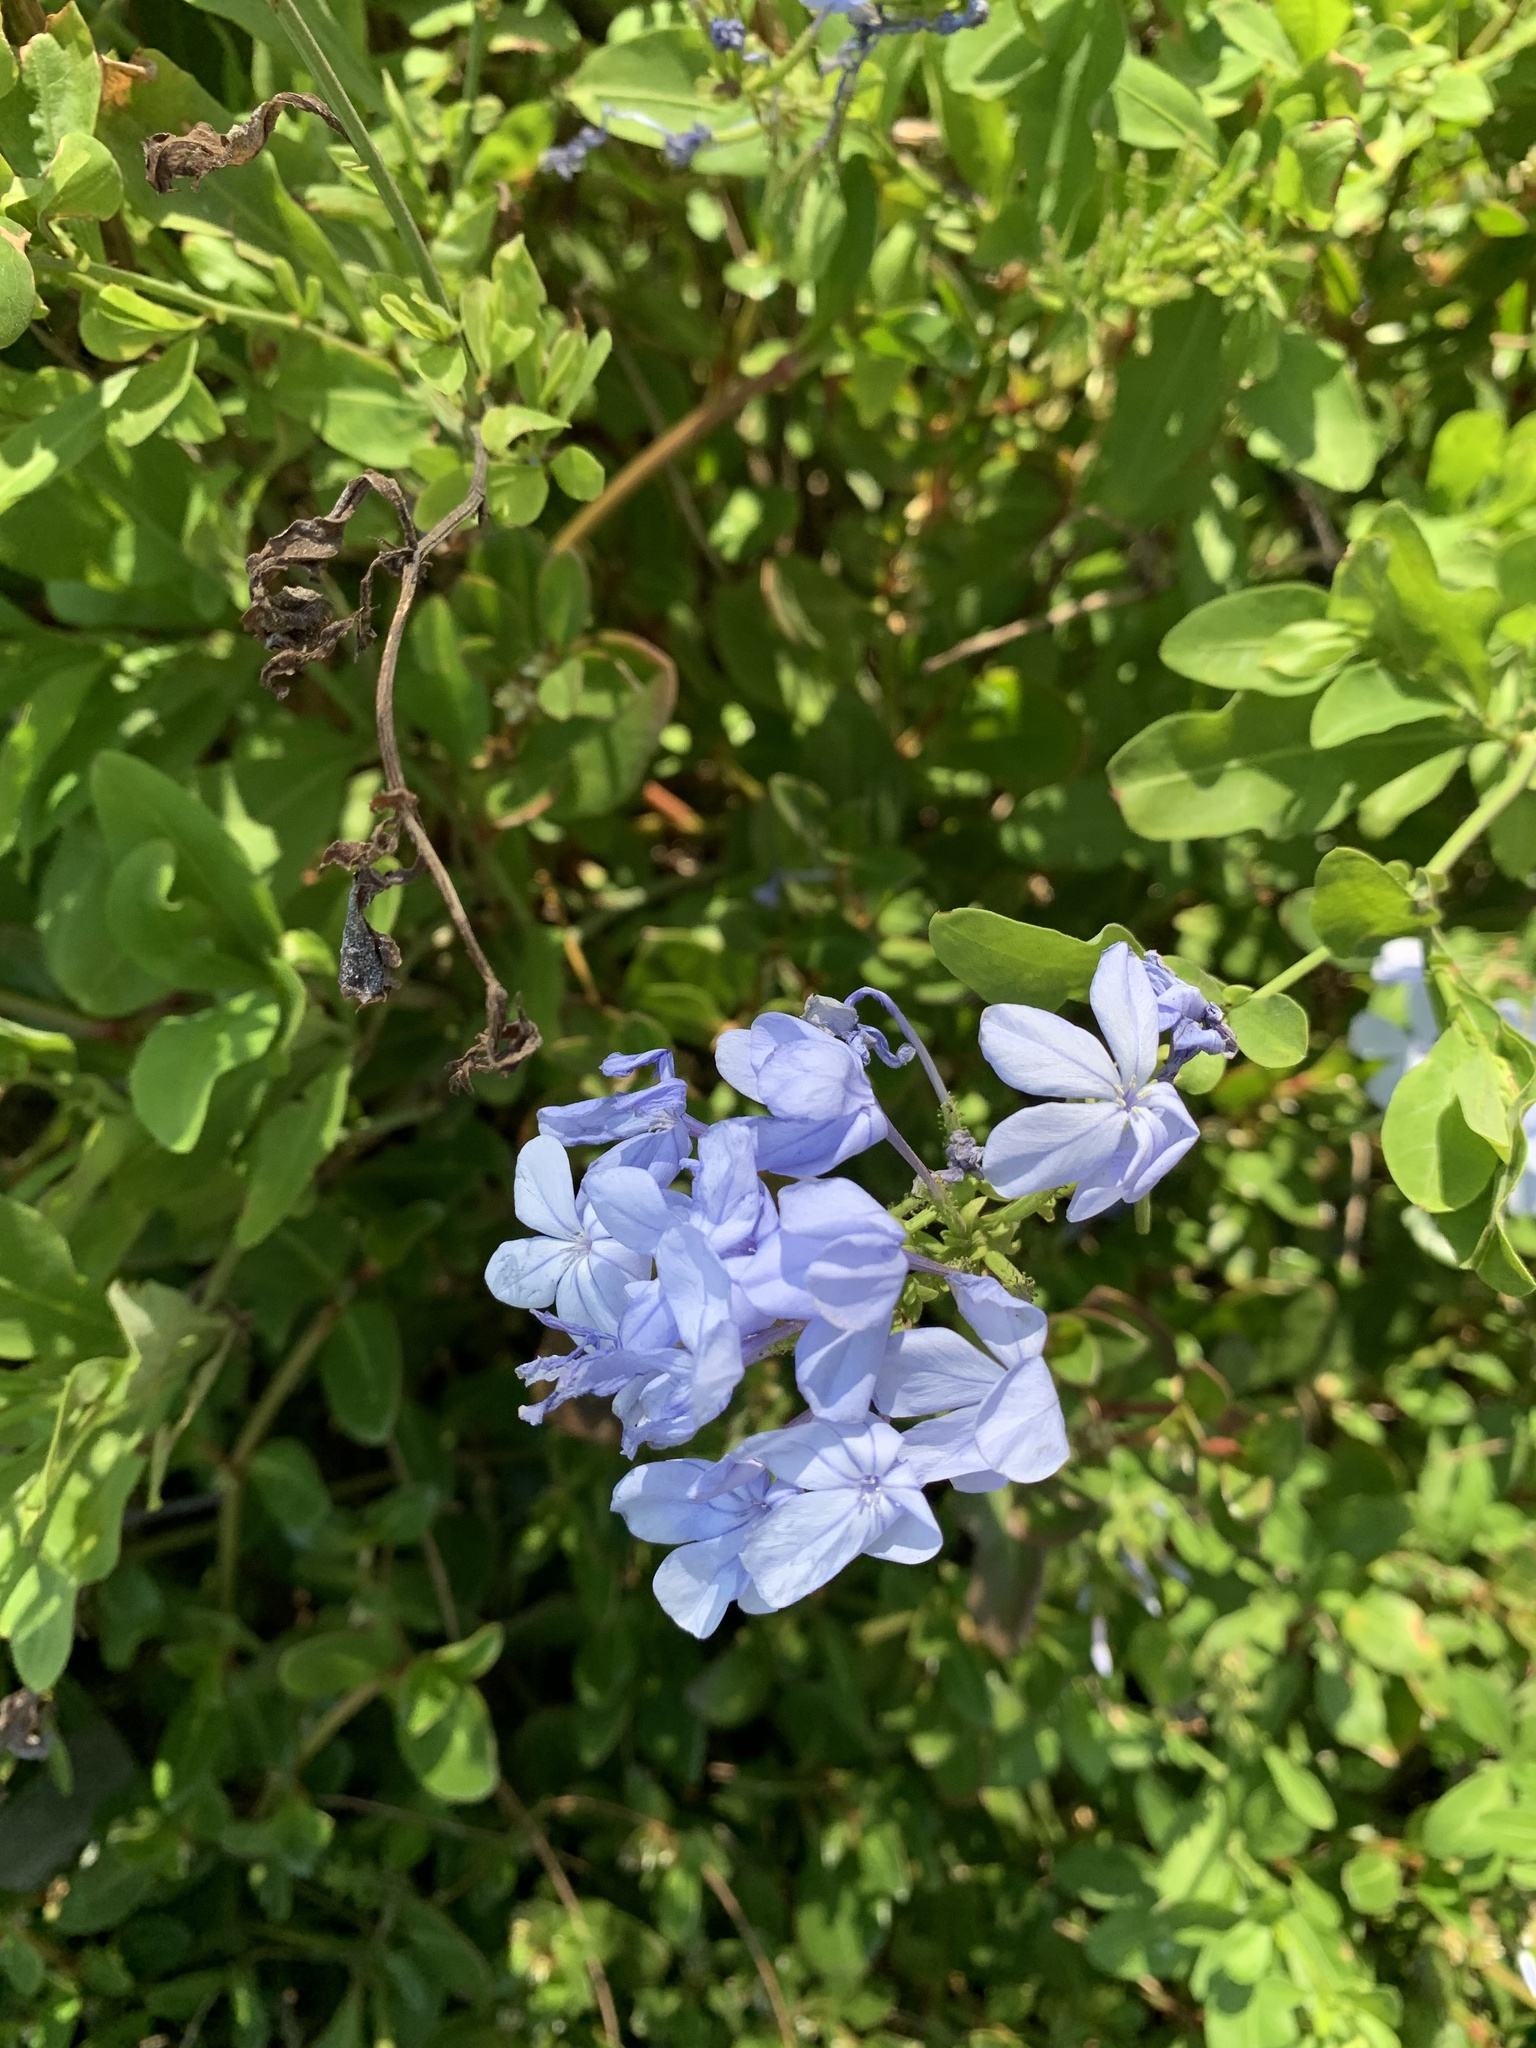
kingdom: Plantae
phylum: Tracheophyta
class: Magnoliopsida
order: Caryophyllales
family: Plumbaginaceae
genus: Plumbago
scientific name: Plumbago auriculata
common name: Cape leadwort
